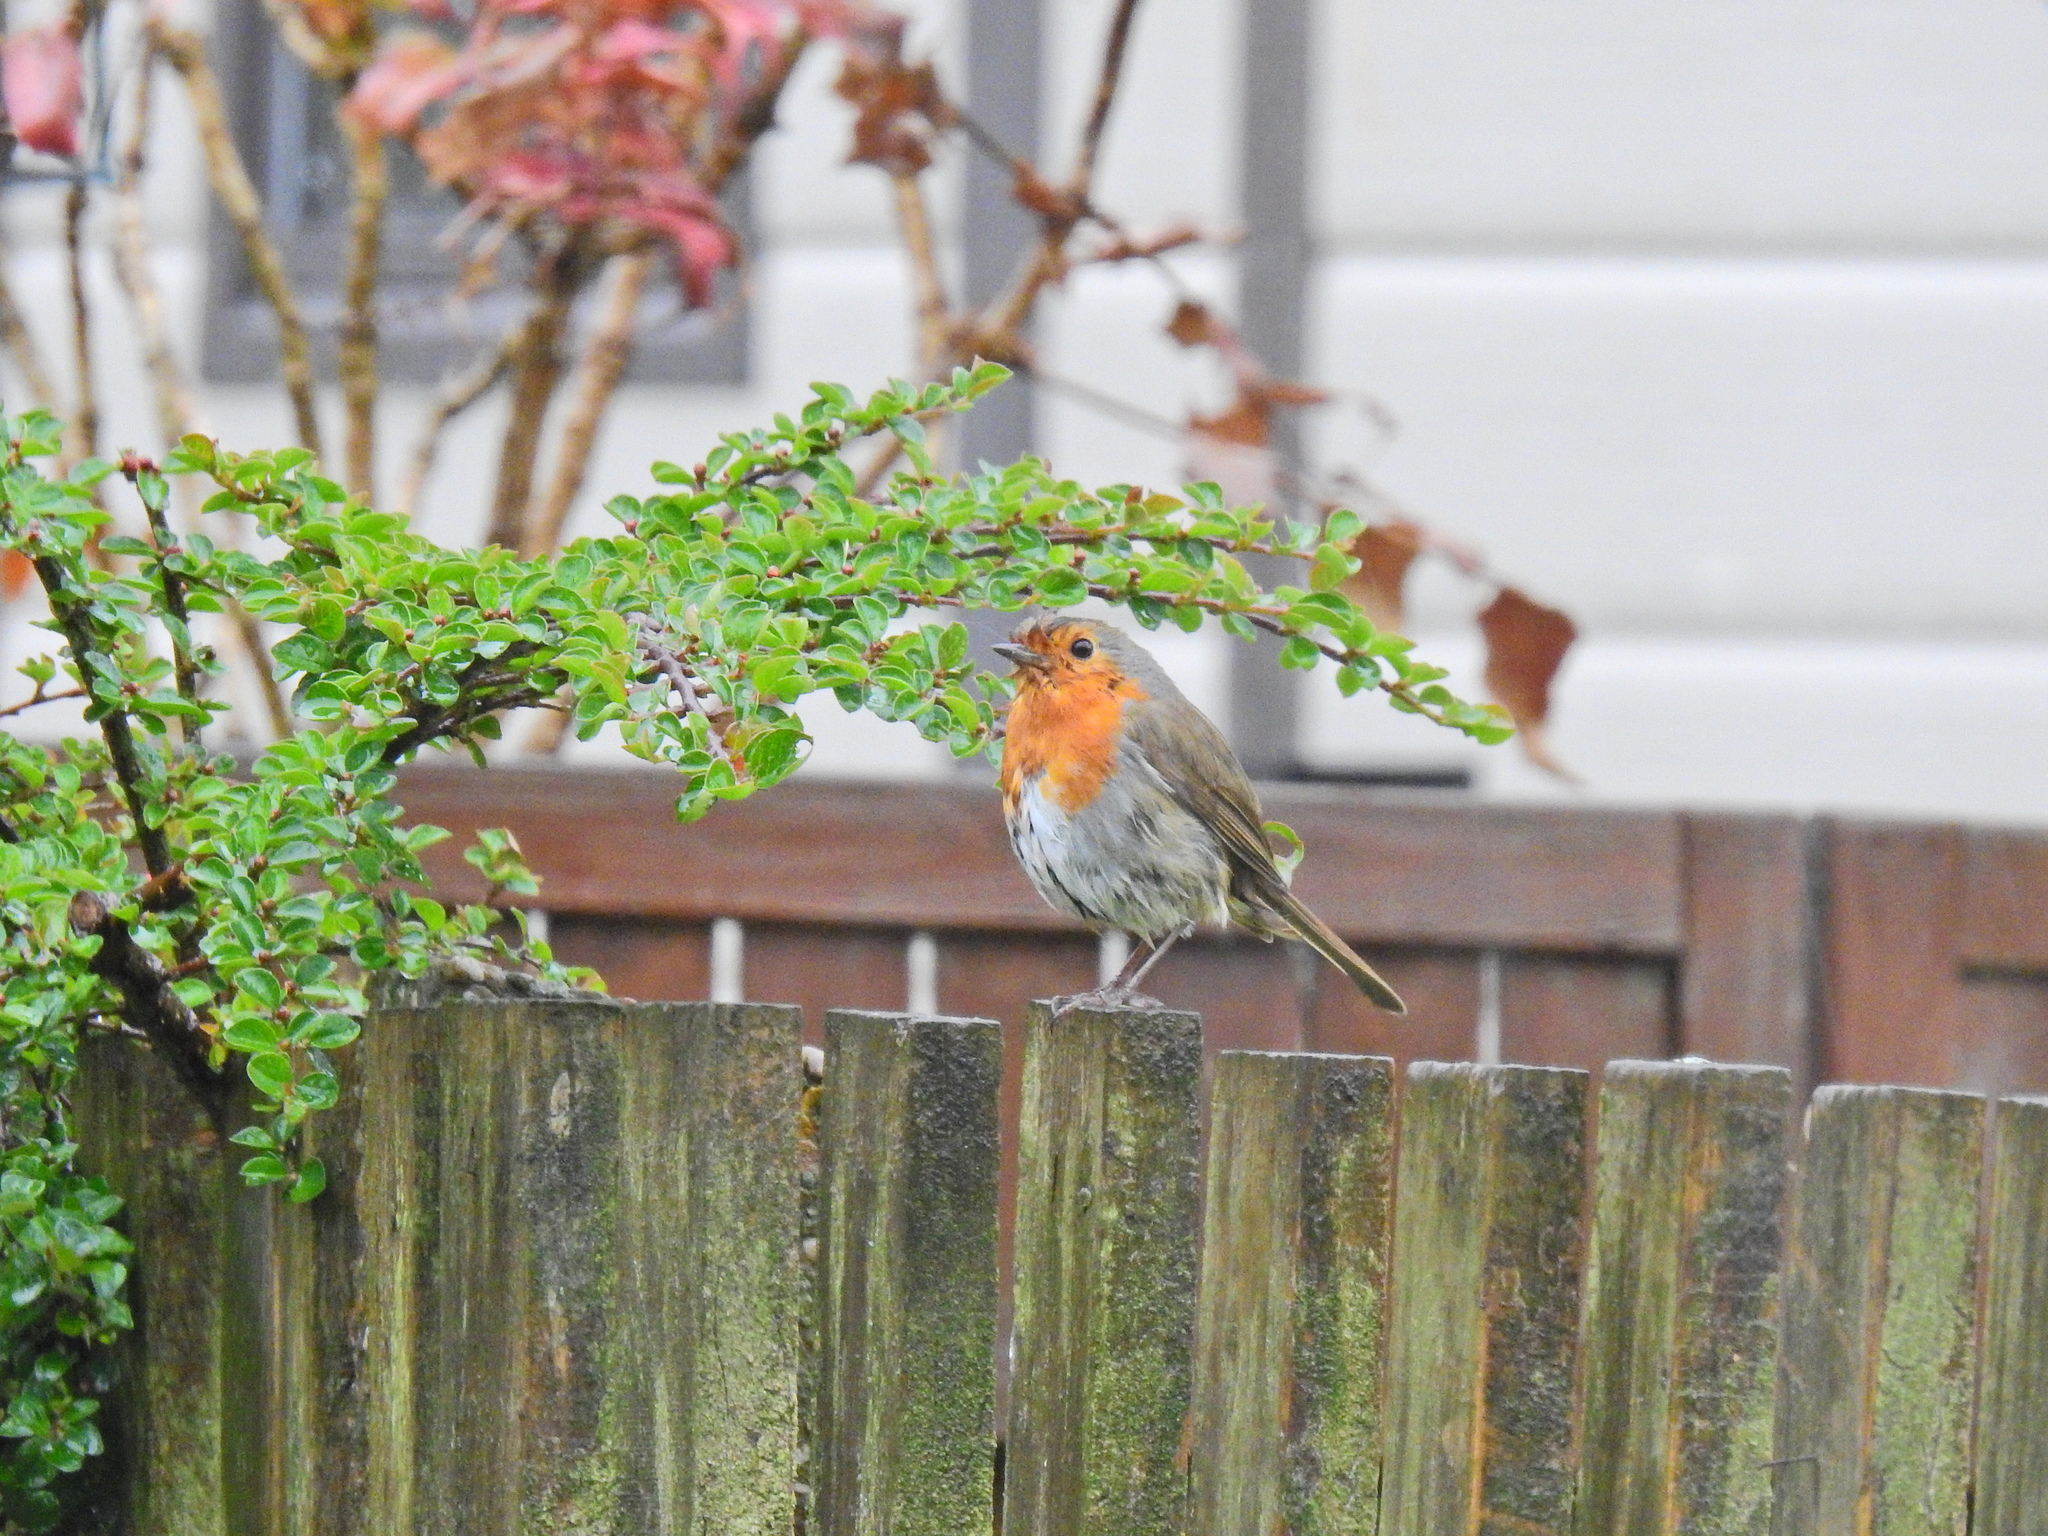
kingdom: Animalia
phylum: Chordata
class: Aves
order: Passeriformes
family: Muscicapidae
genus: Erithacus
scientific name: Erithacus rubecula
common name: European robin
